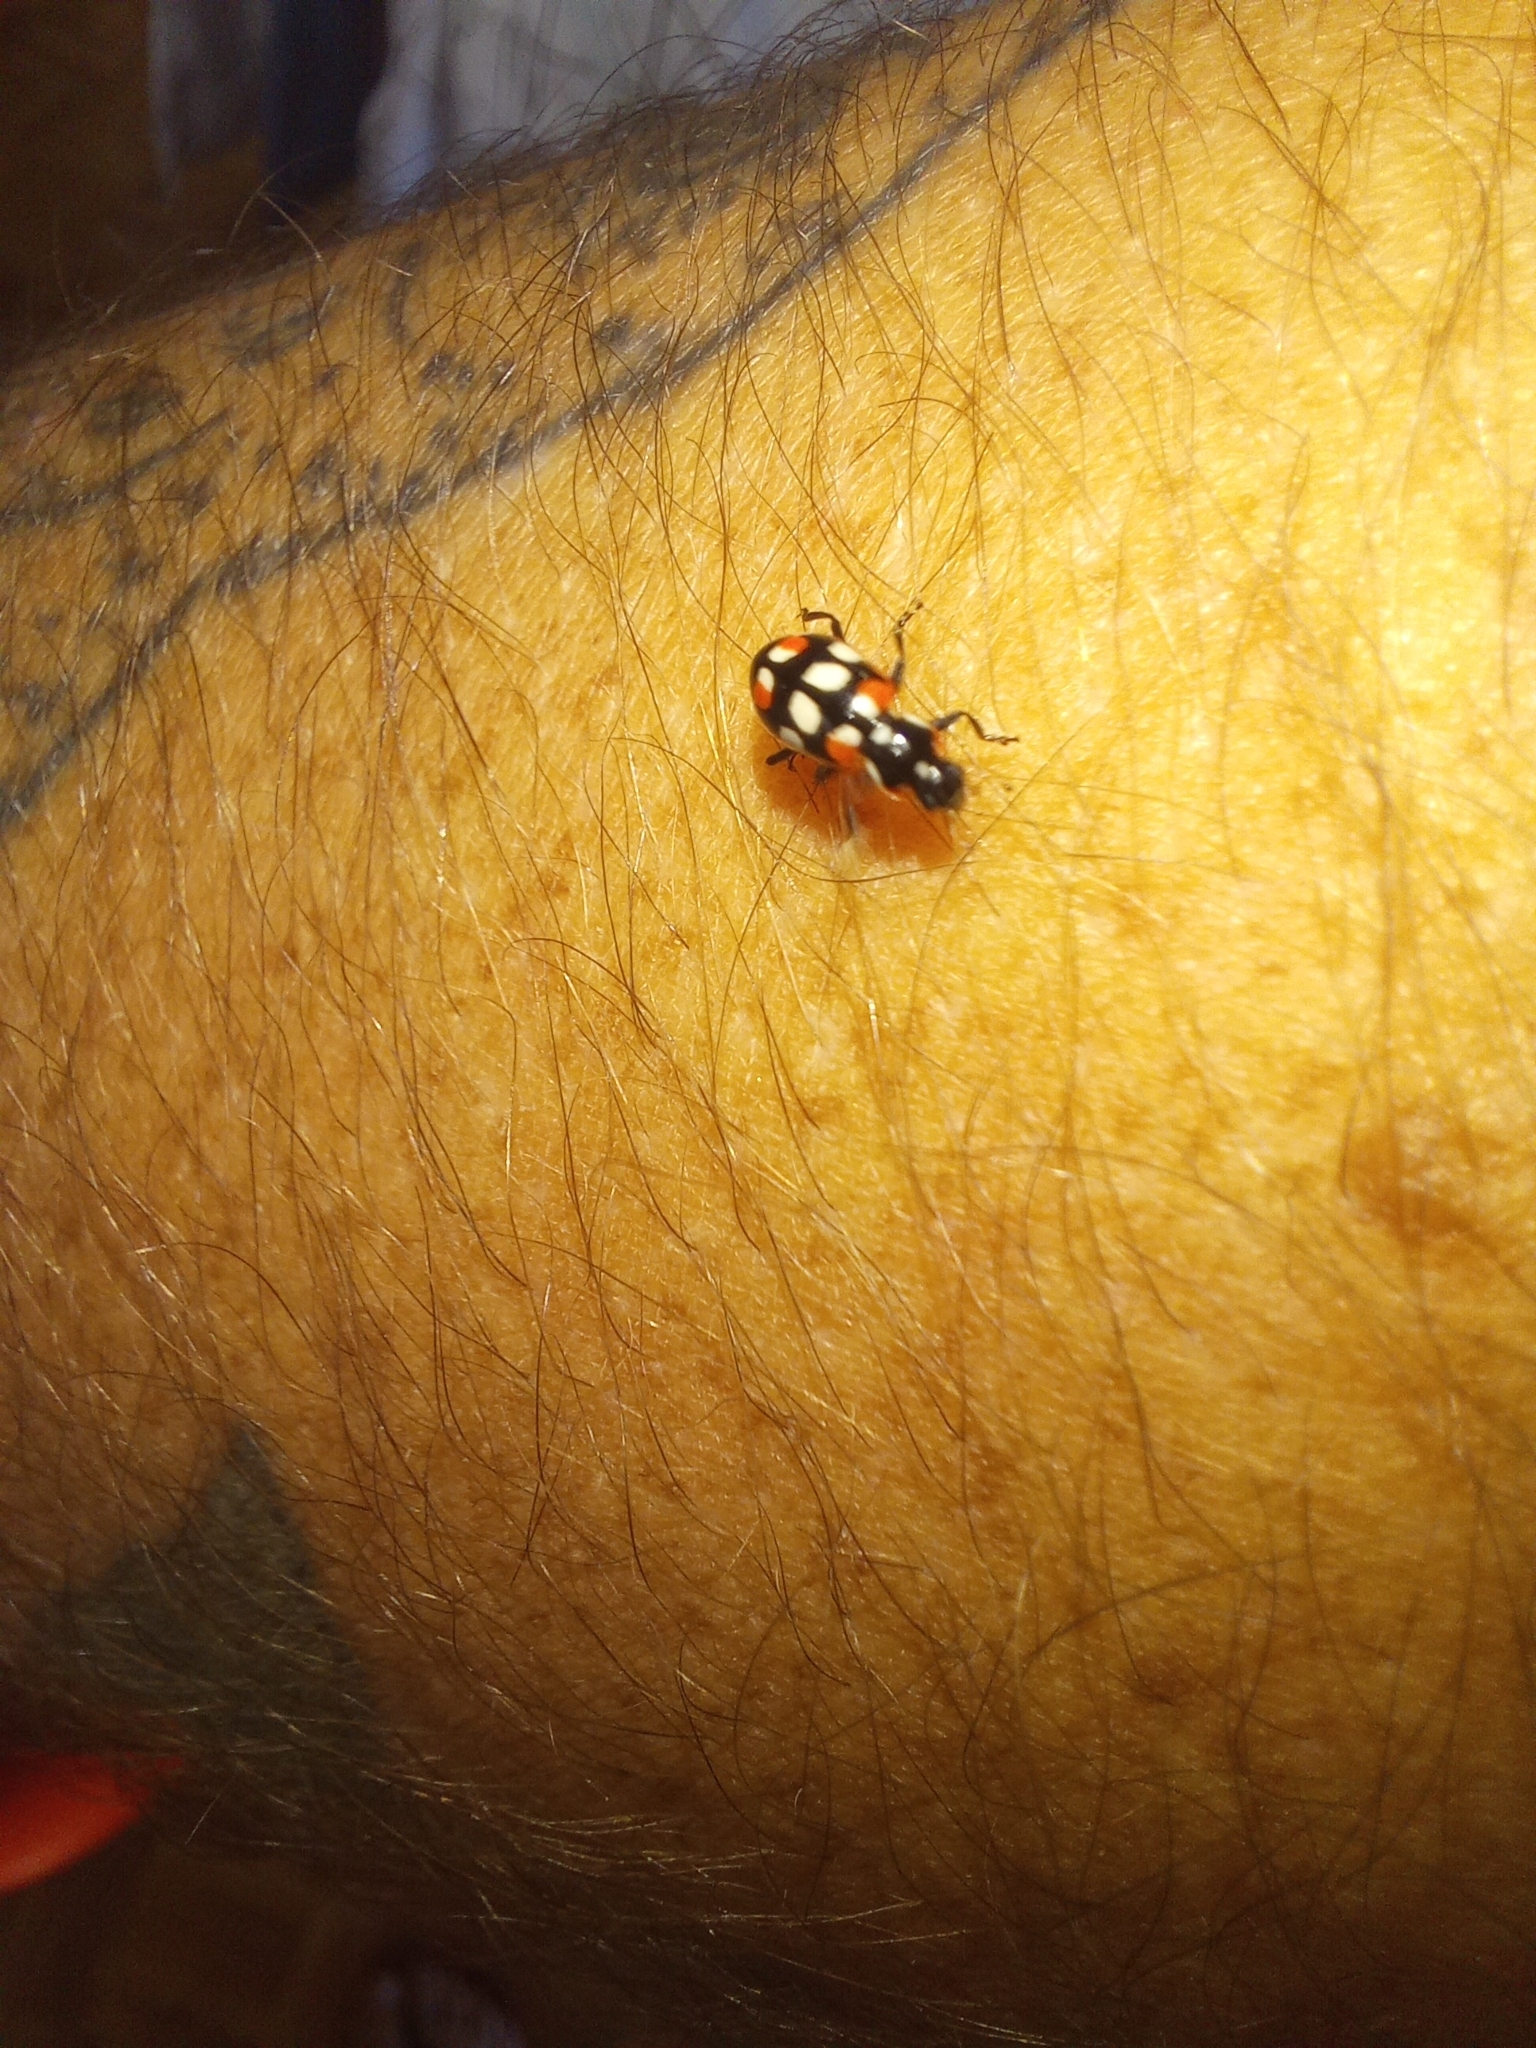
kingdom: Animalia
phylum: Arthropoda
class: Insecta
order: Coleoptera
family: Coccinellidae
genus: Eriopis
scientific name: Eriopis connexa
